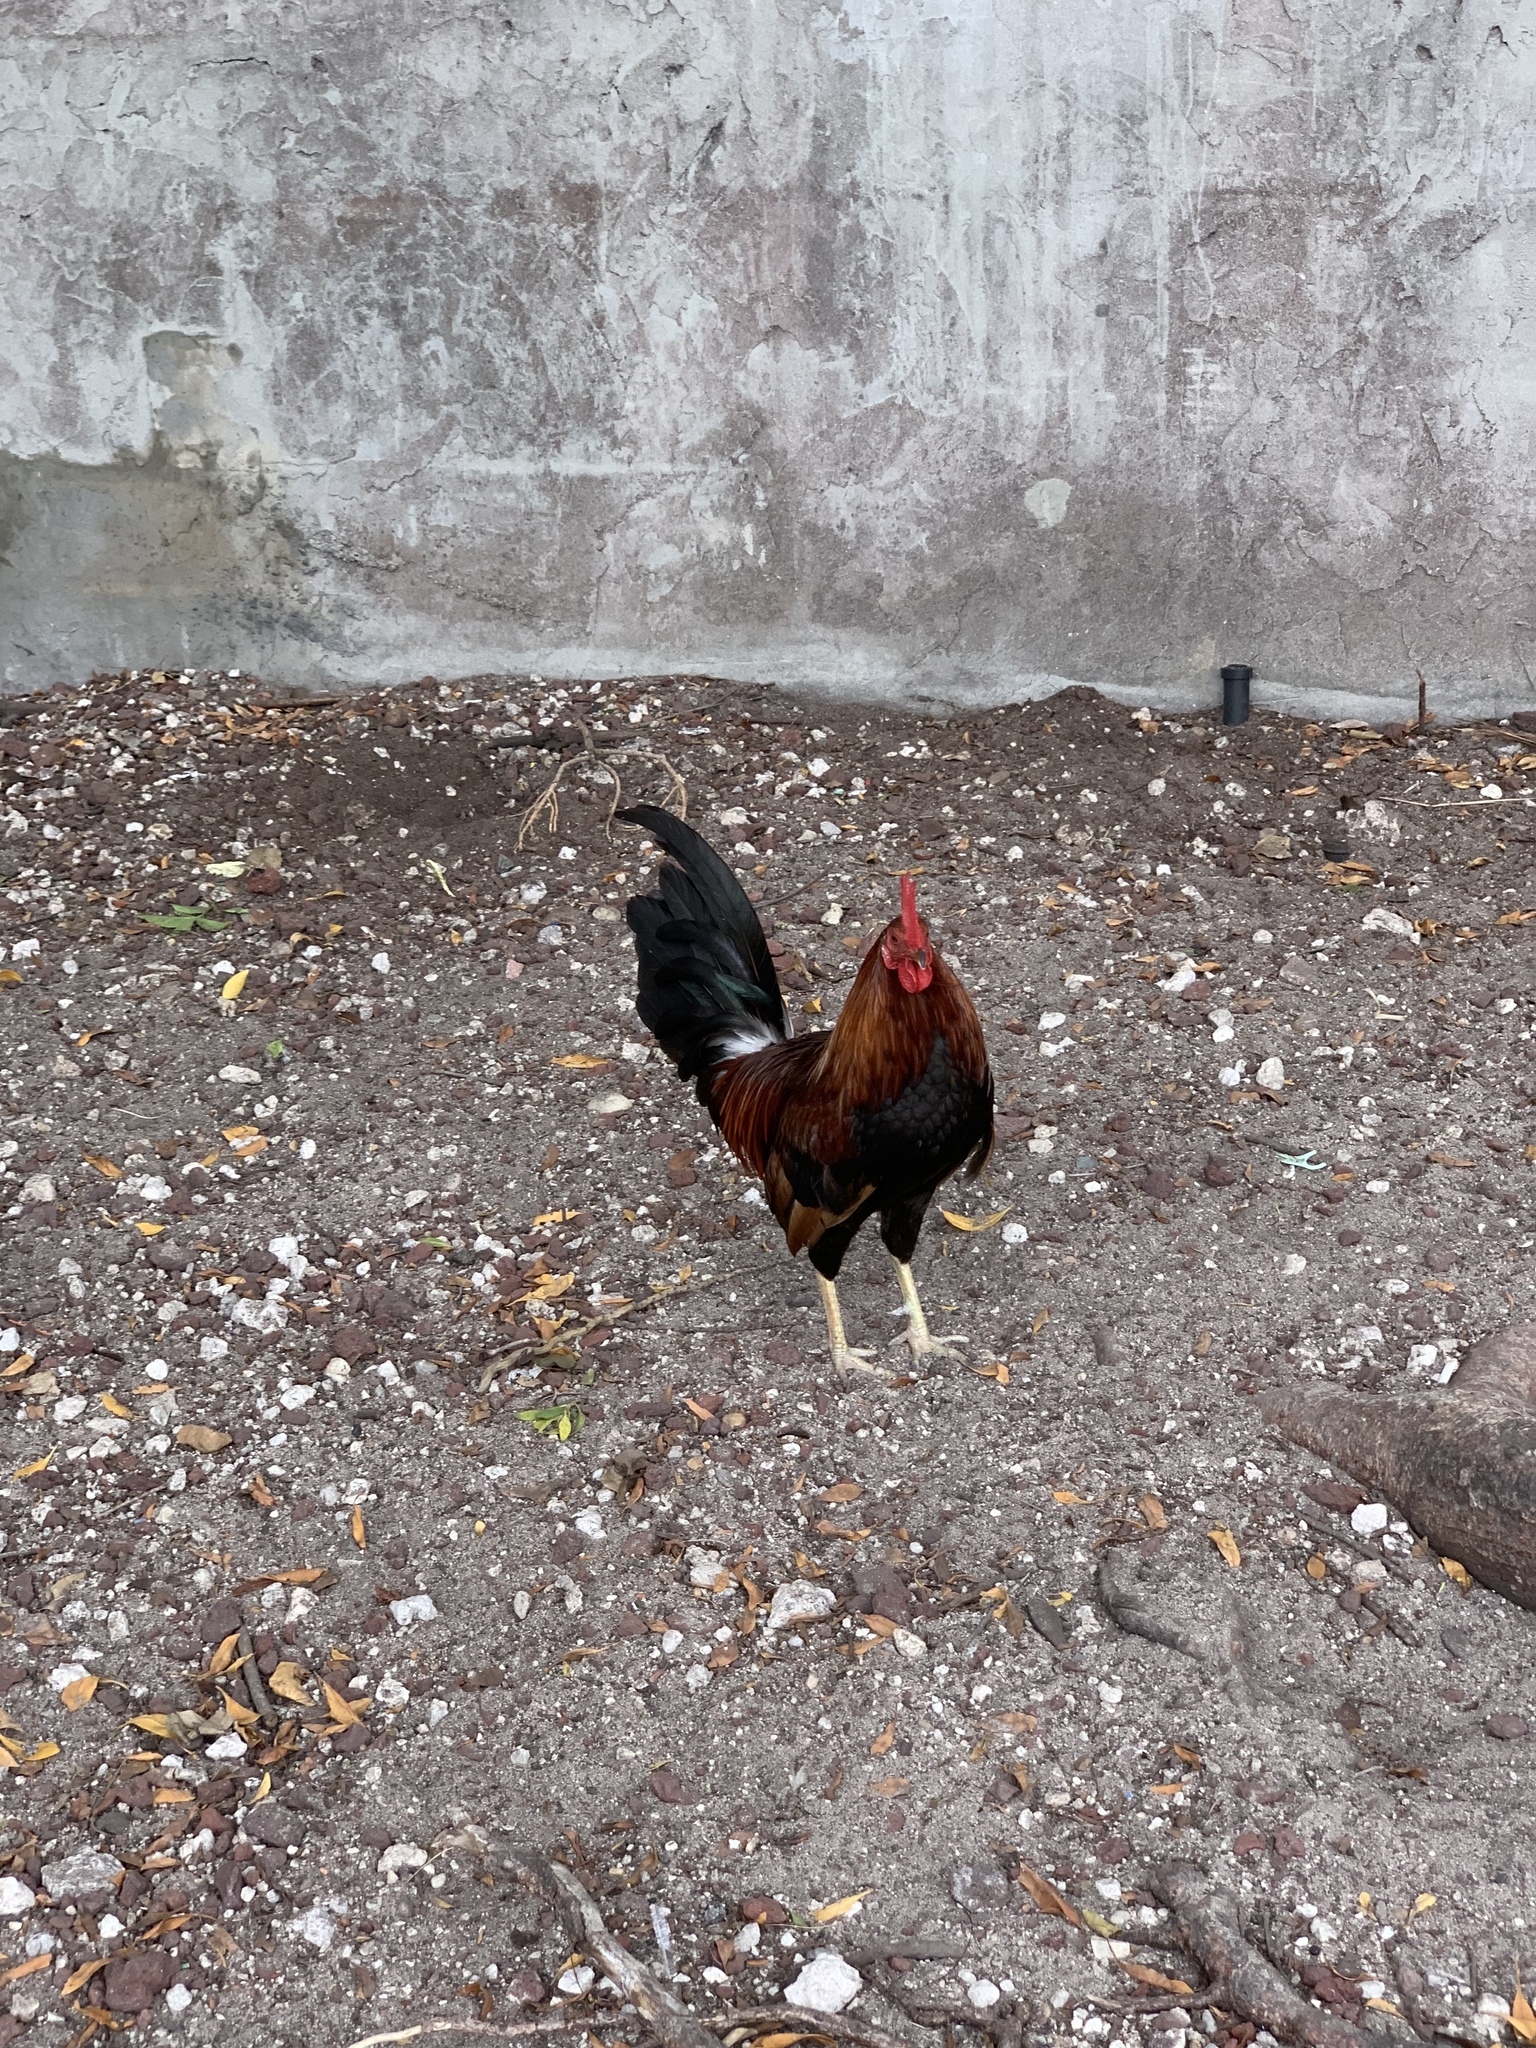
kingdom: Animalia
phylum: Chordata
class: Aves
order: Galliformes
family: Phasianidae
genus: Gallus
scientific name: Gallus gallus
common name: Red junglefowl
